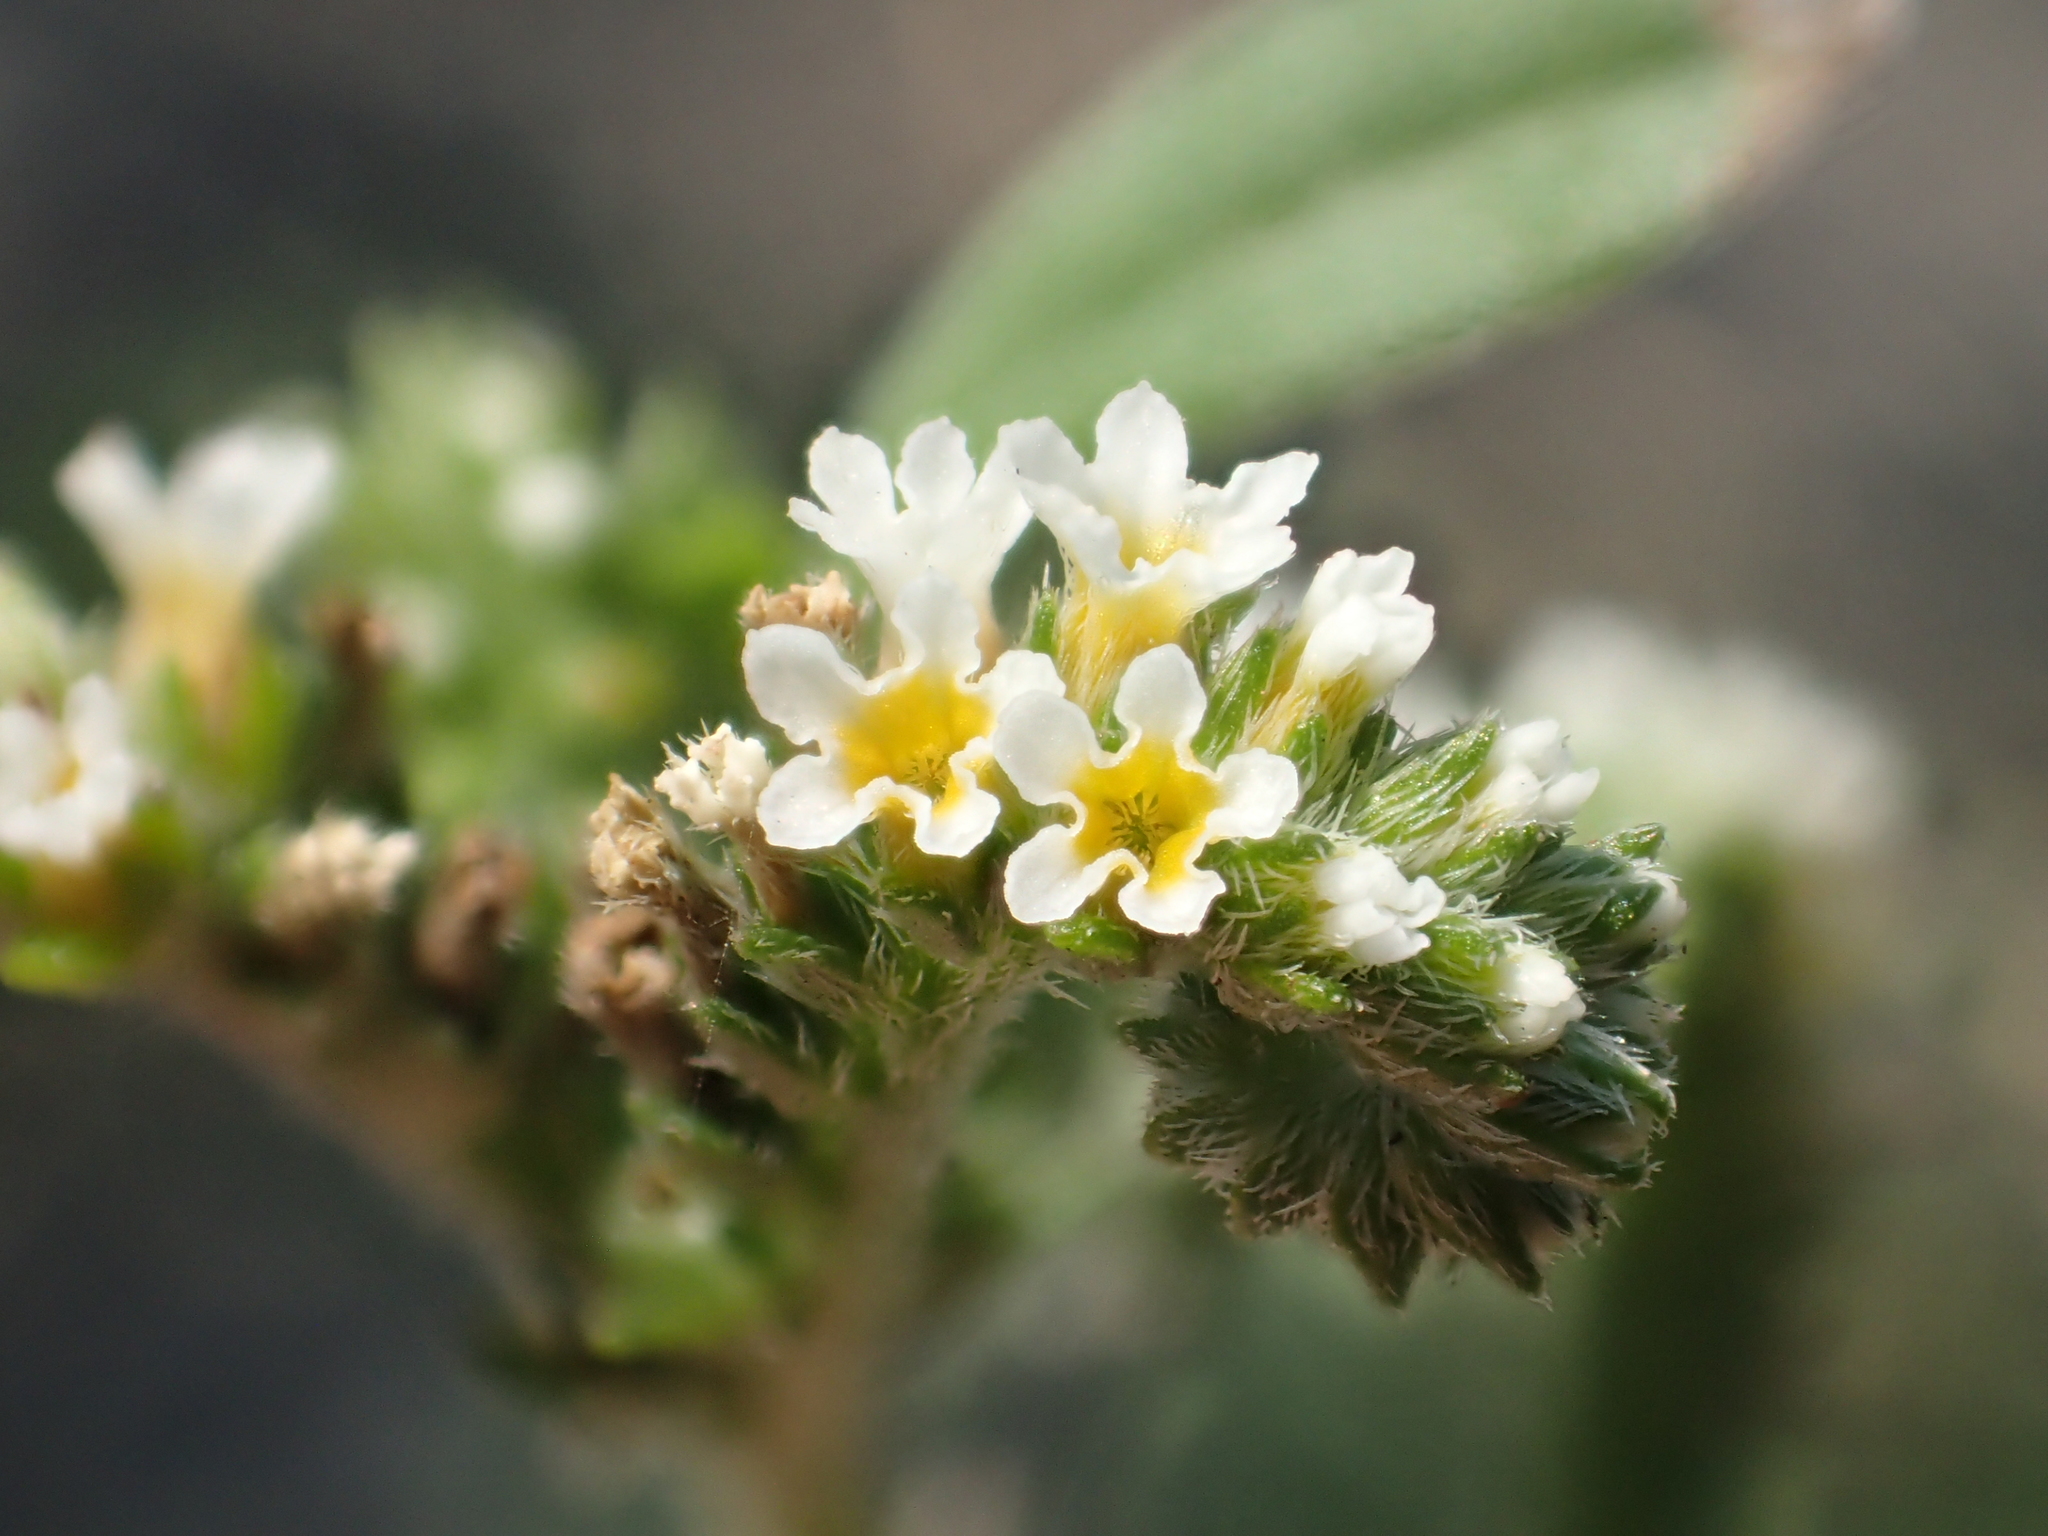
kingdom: Plantae
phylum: Tracheophyta
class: Magnoliopsida
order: Boraginales
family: Heliotropiaceae
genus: Euploca
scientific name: Euploca procumbens
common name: Fourspike heliotrope
